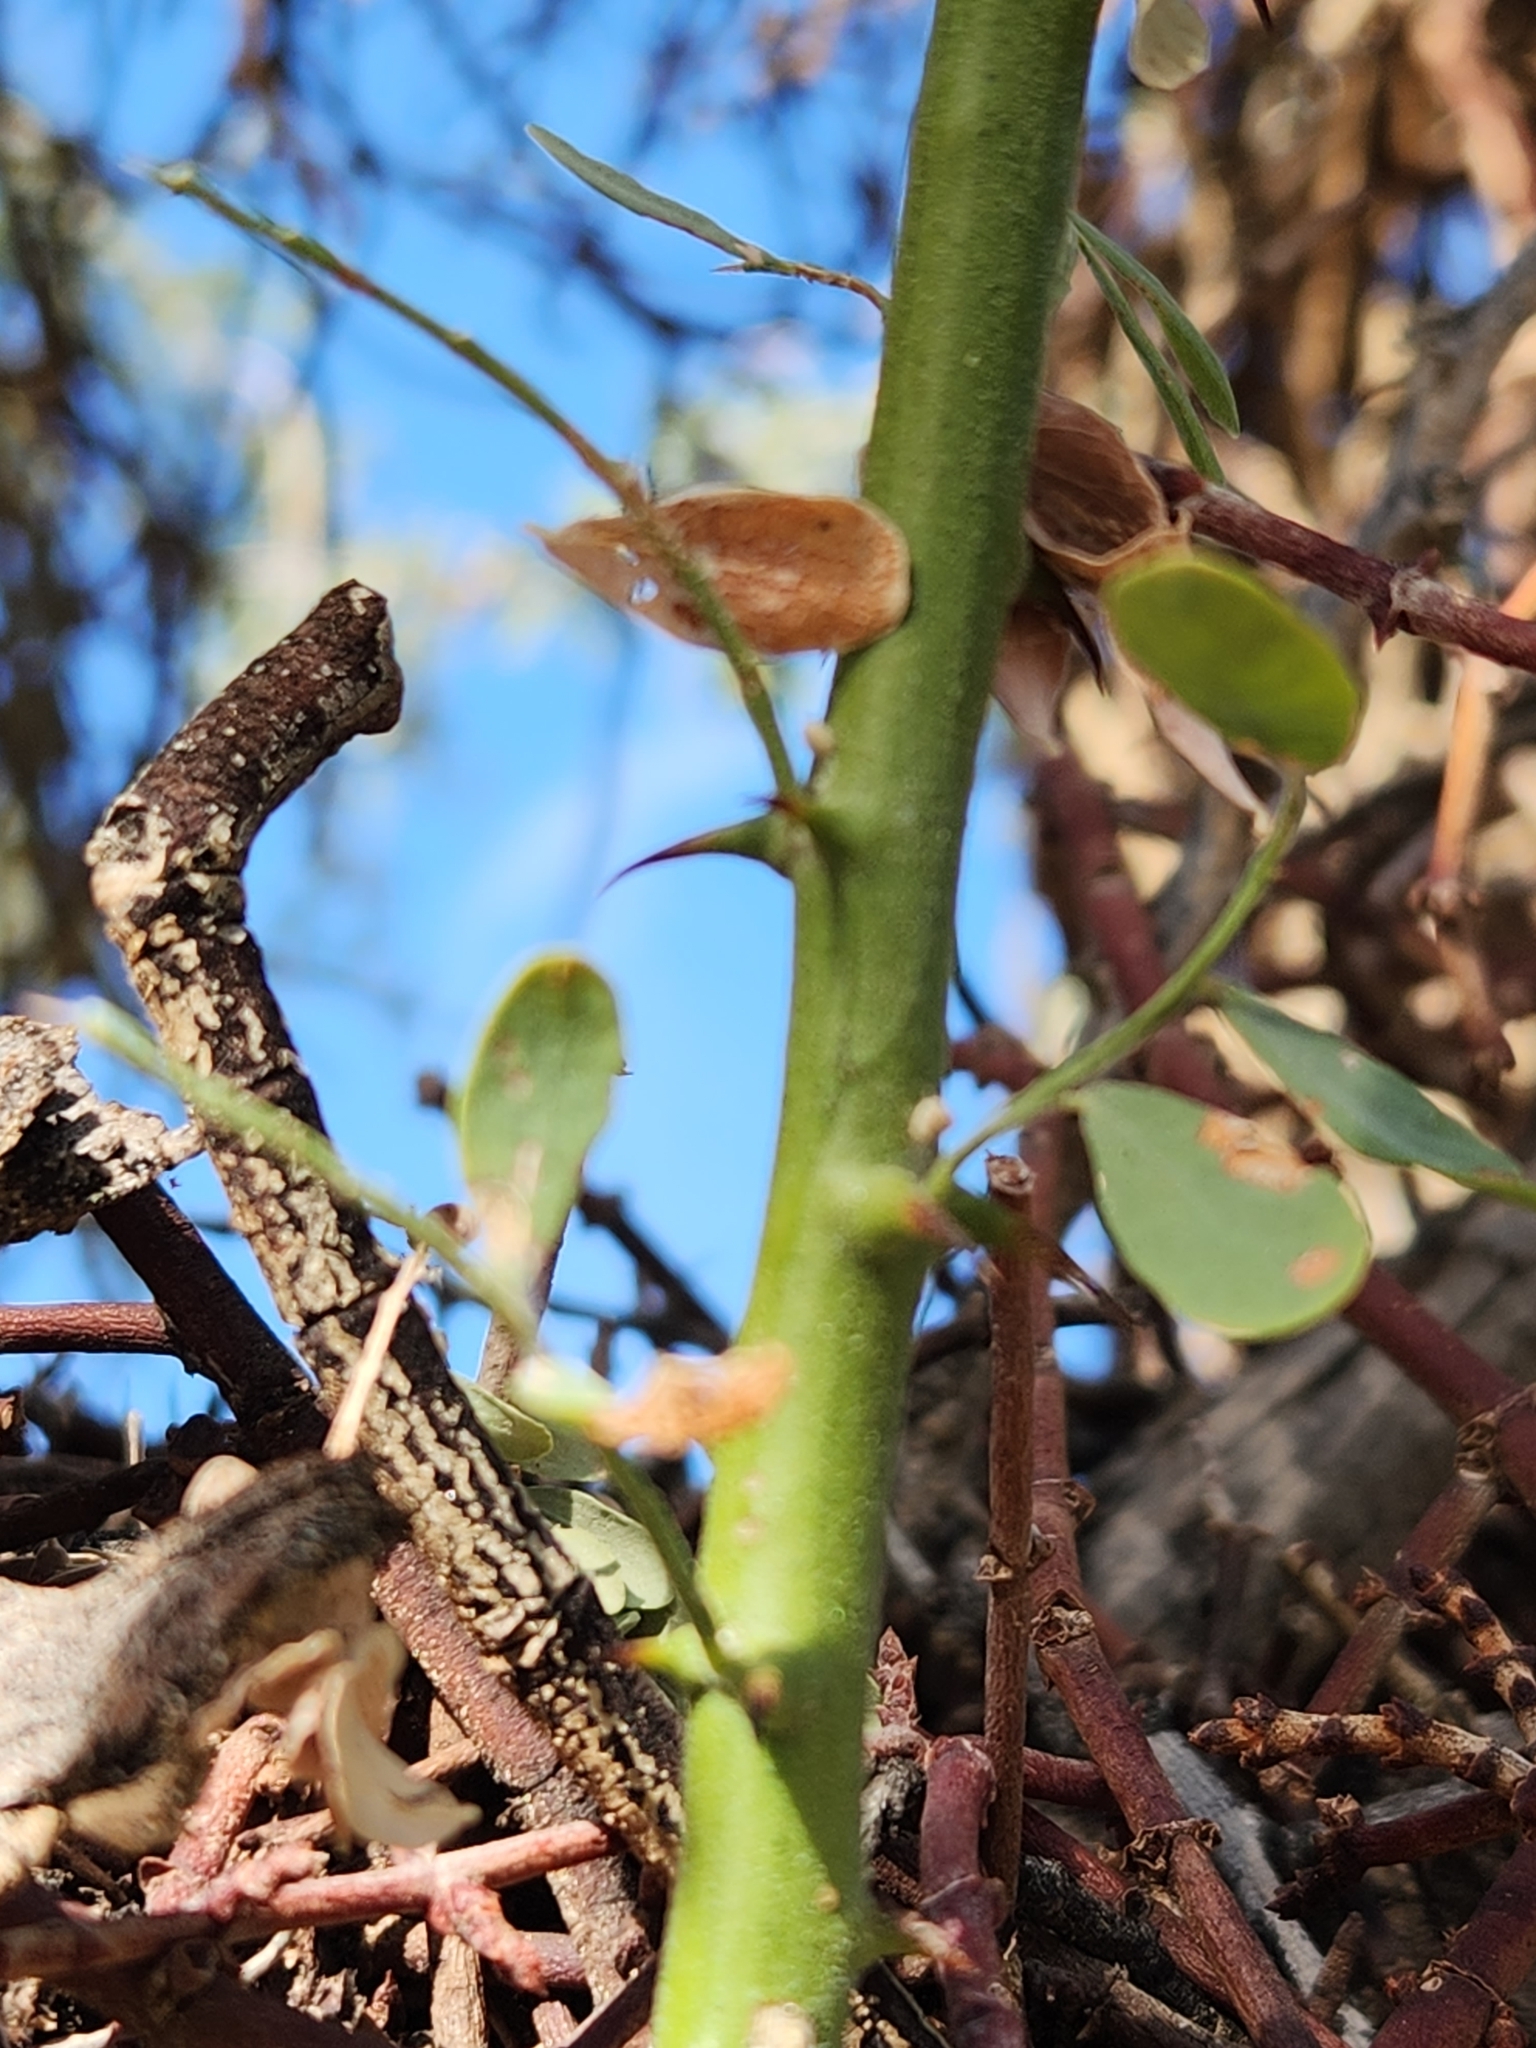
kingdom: Plantae
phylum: Tracheophyta
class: Magnoliopsida
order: Fabales
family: Fabaceae
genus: Olneya
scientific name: Olneya tesota
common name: Desert ironwood
